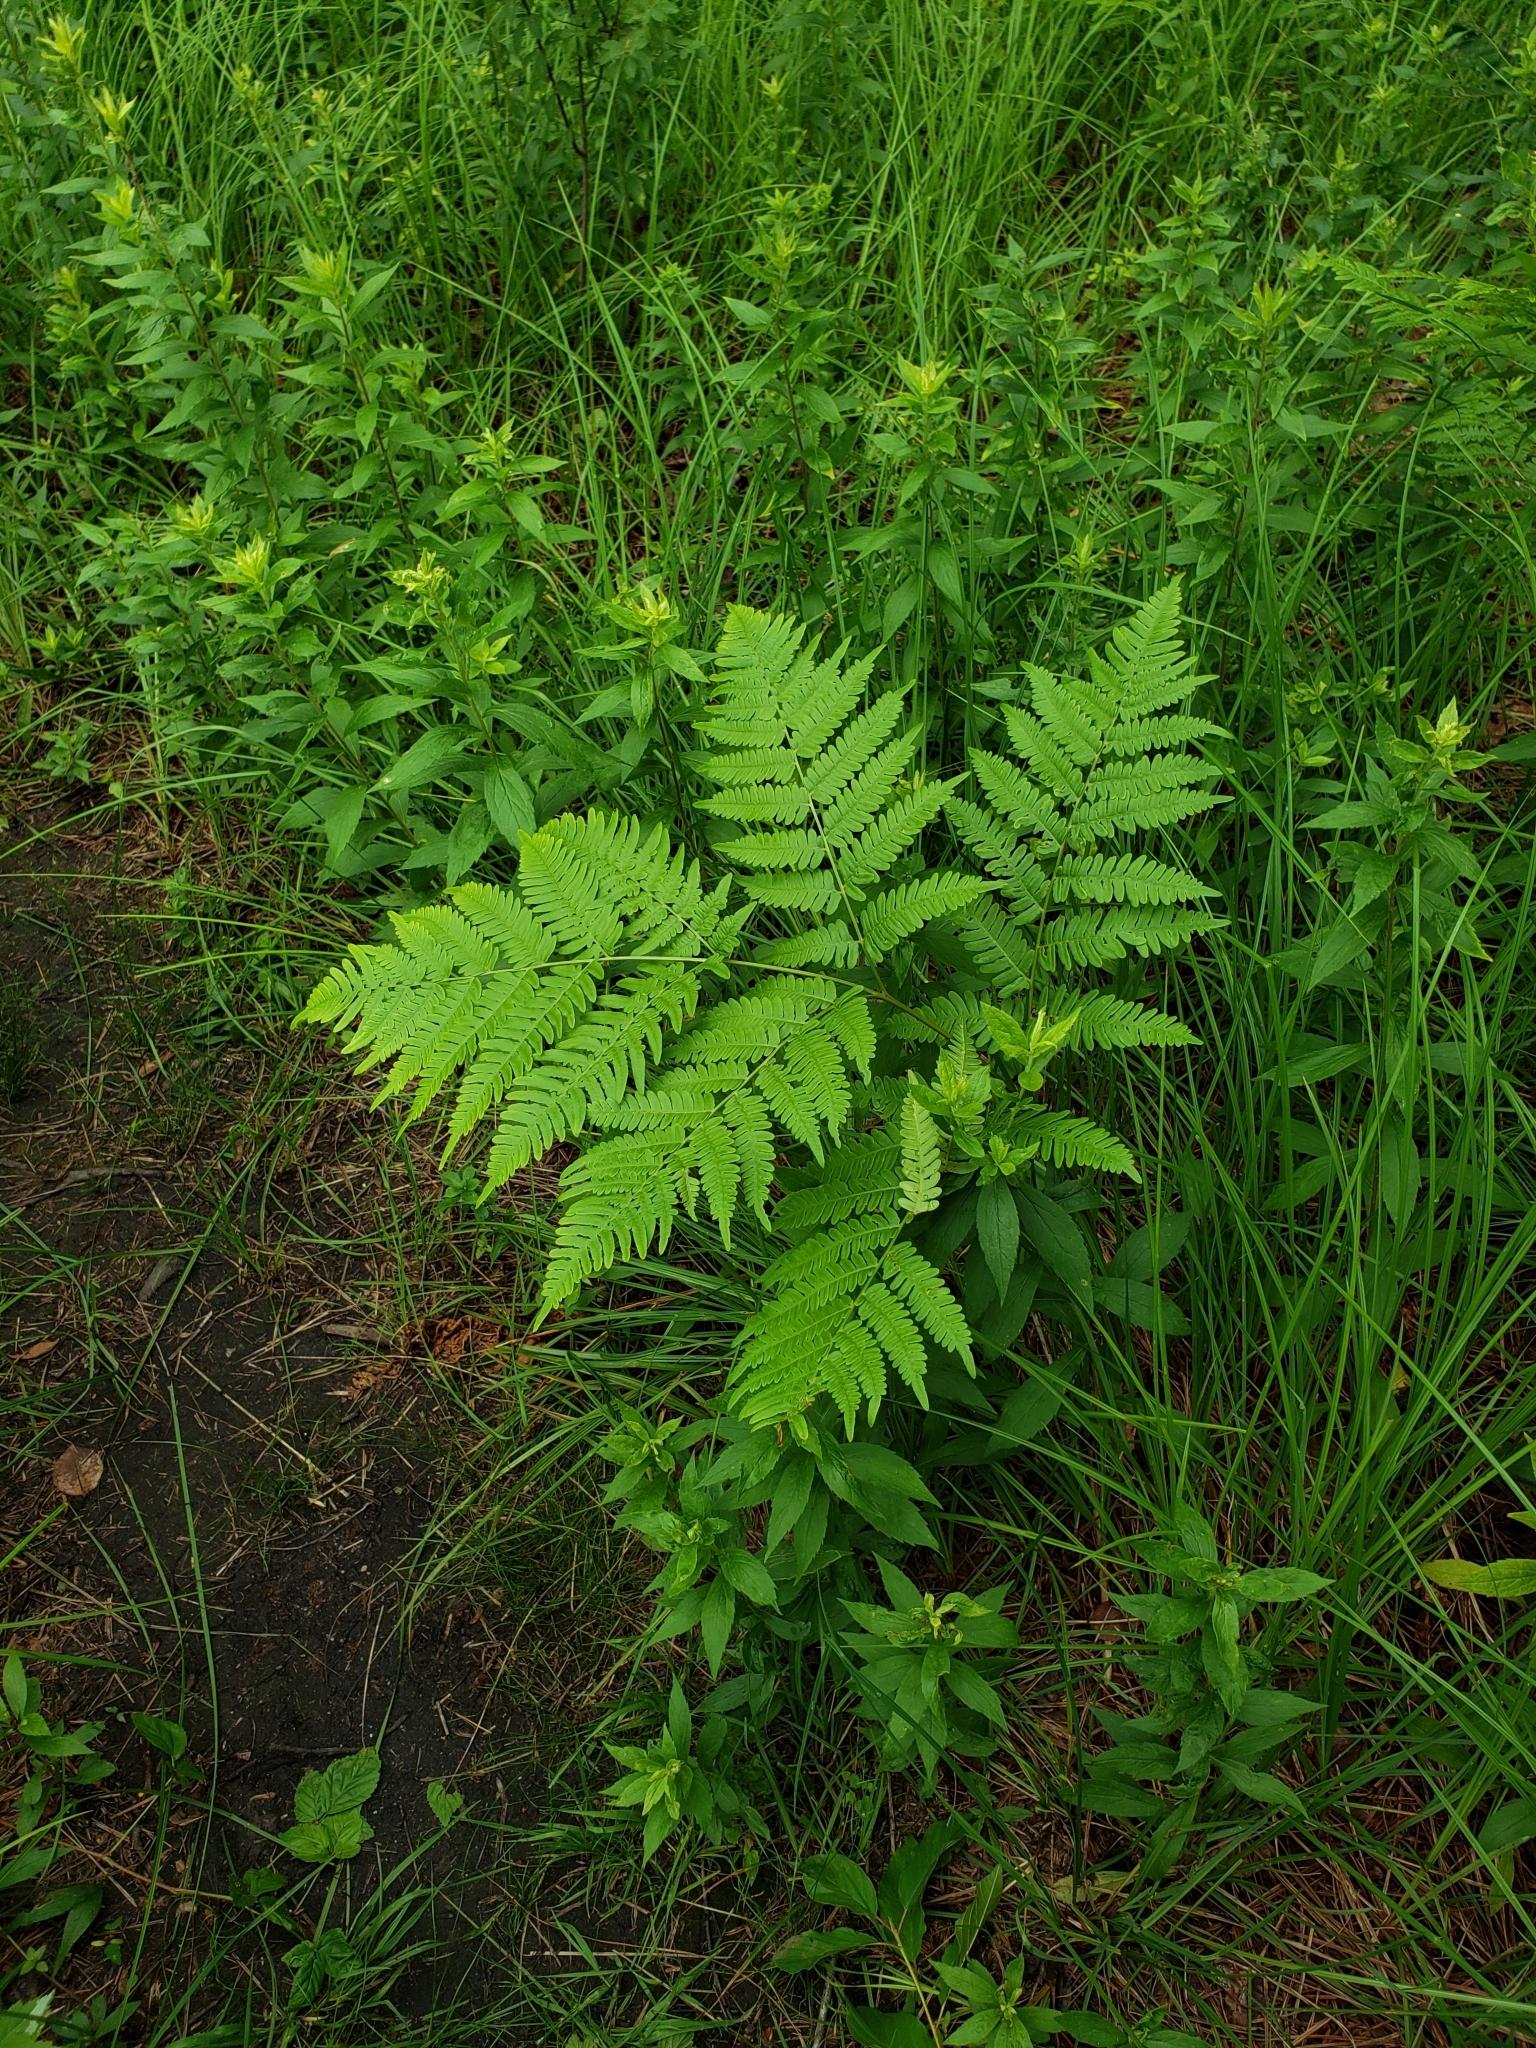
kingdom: Plantae
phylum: Tracheophyta
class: Polypodiopsida
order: Polypodiales
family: Dennstaedtiaceae
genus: Pteridium
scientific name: Pteridium aquilinum
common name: Bracken
